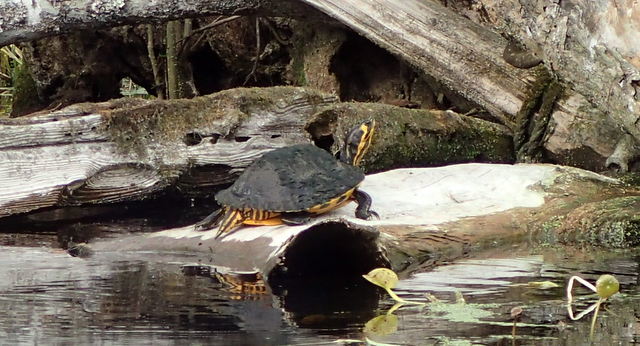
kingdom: Animalia
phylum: Chordata
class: Testudines
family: Emydidae
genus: Trachemys
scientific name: Trachemys scripta
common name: Slider
